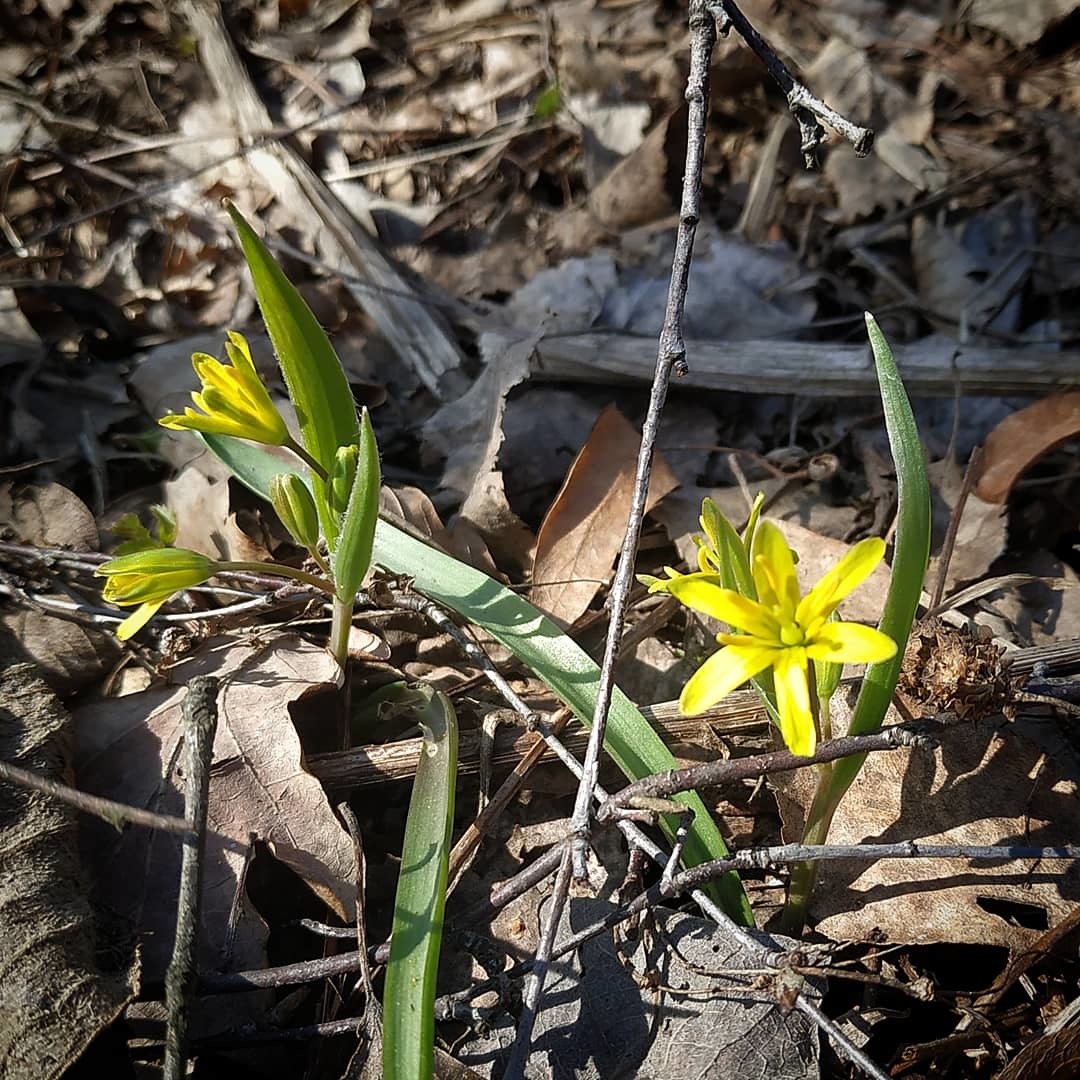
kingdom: Plantae
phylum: Tracheophyta
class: Liliopsida
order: Liliales
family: Liliaceae
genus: Gagea
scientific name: Gagea lutea
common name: Yellow star-of-bethlehem
